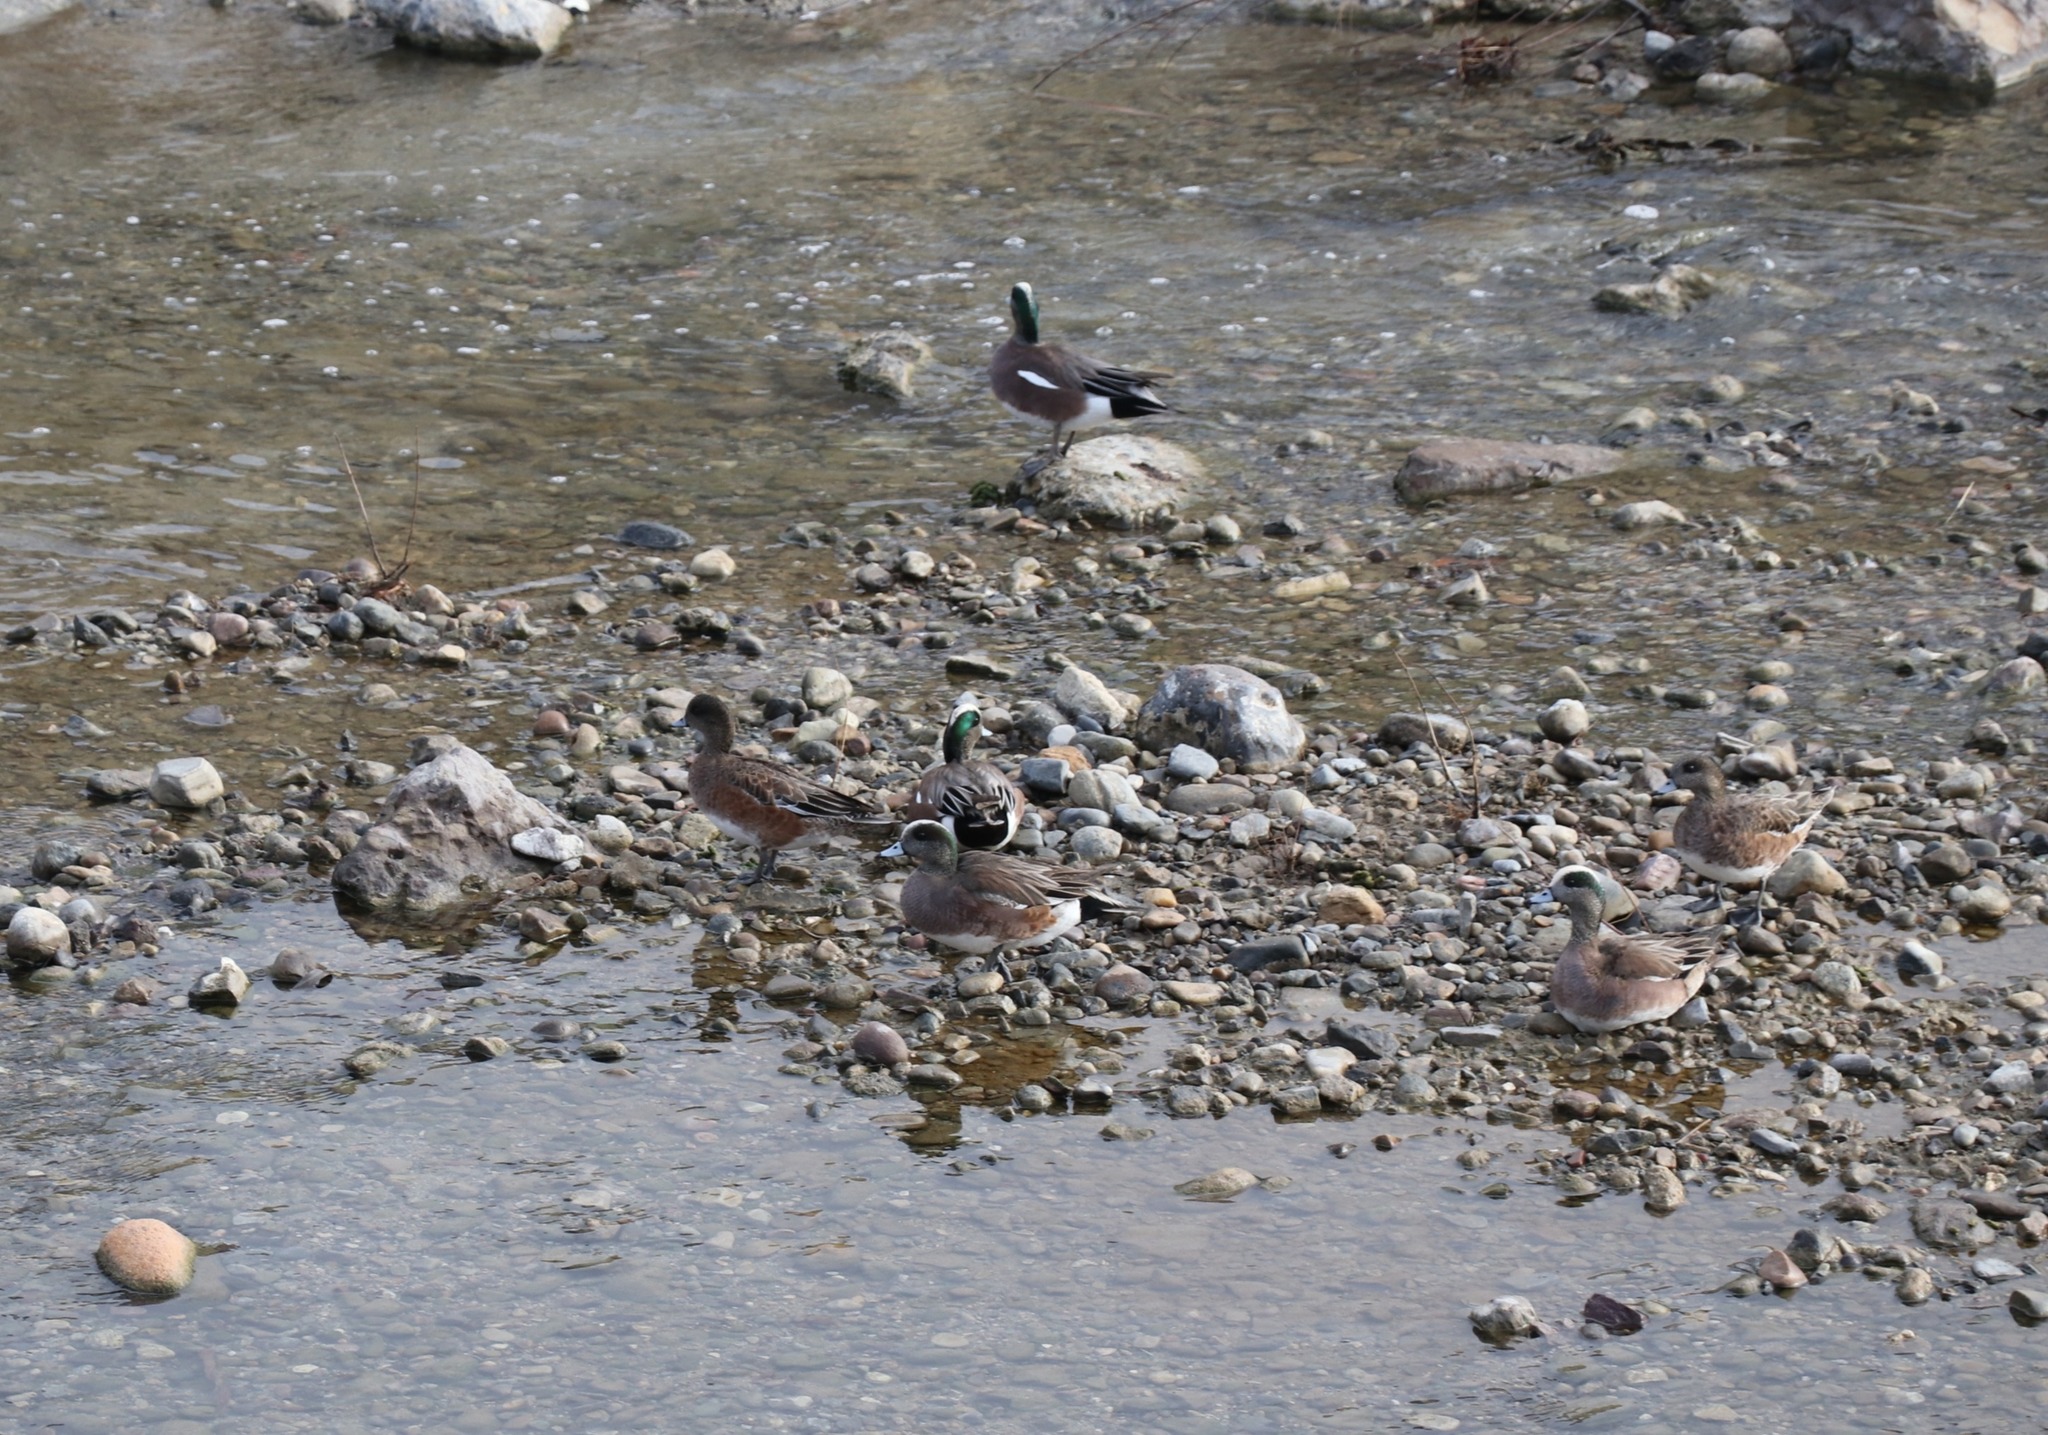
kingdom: Animalia
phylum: Chordata
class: Aves
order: Anseriformes
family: Anatidae
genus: Mareca
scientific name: Mareca americana
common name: American wigeon
